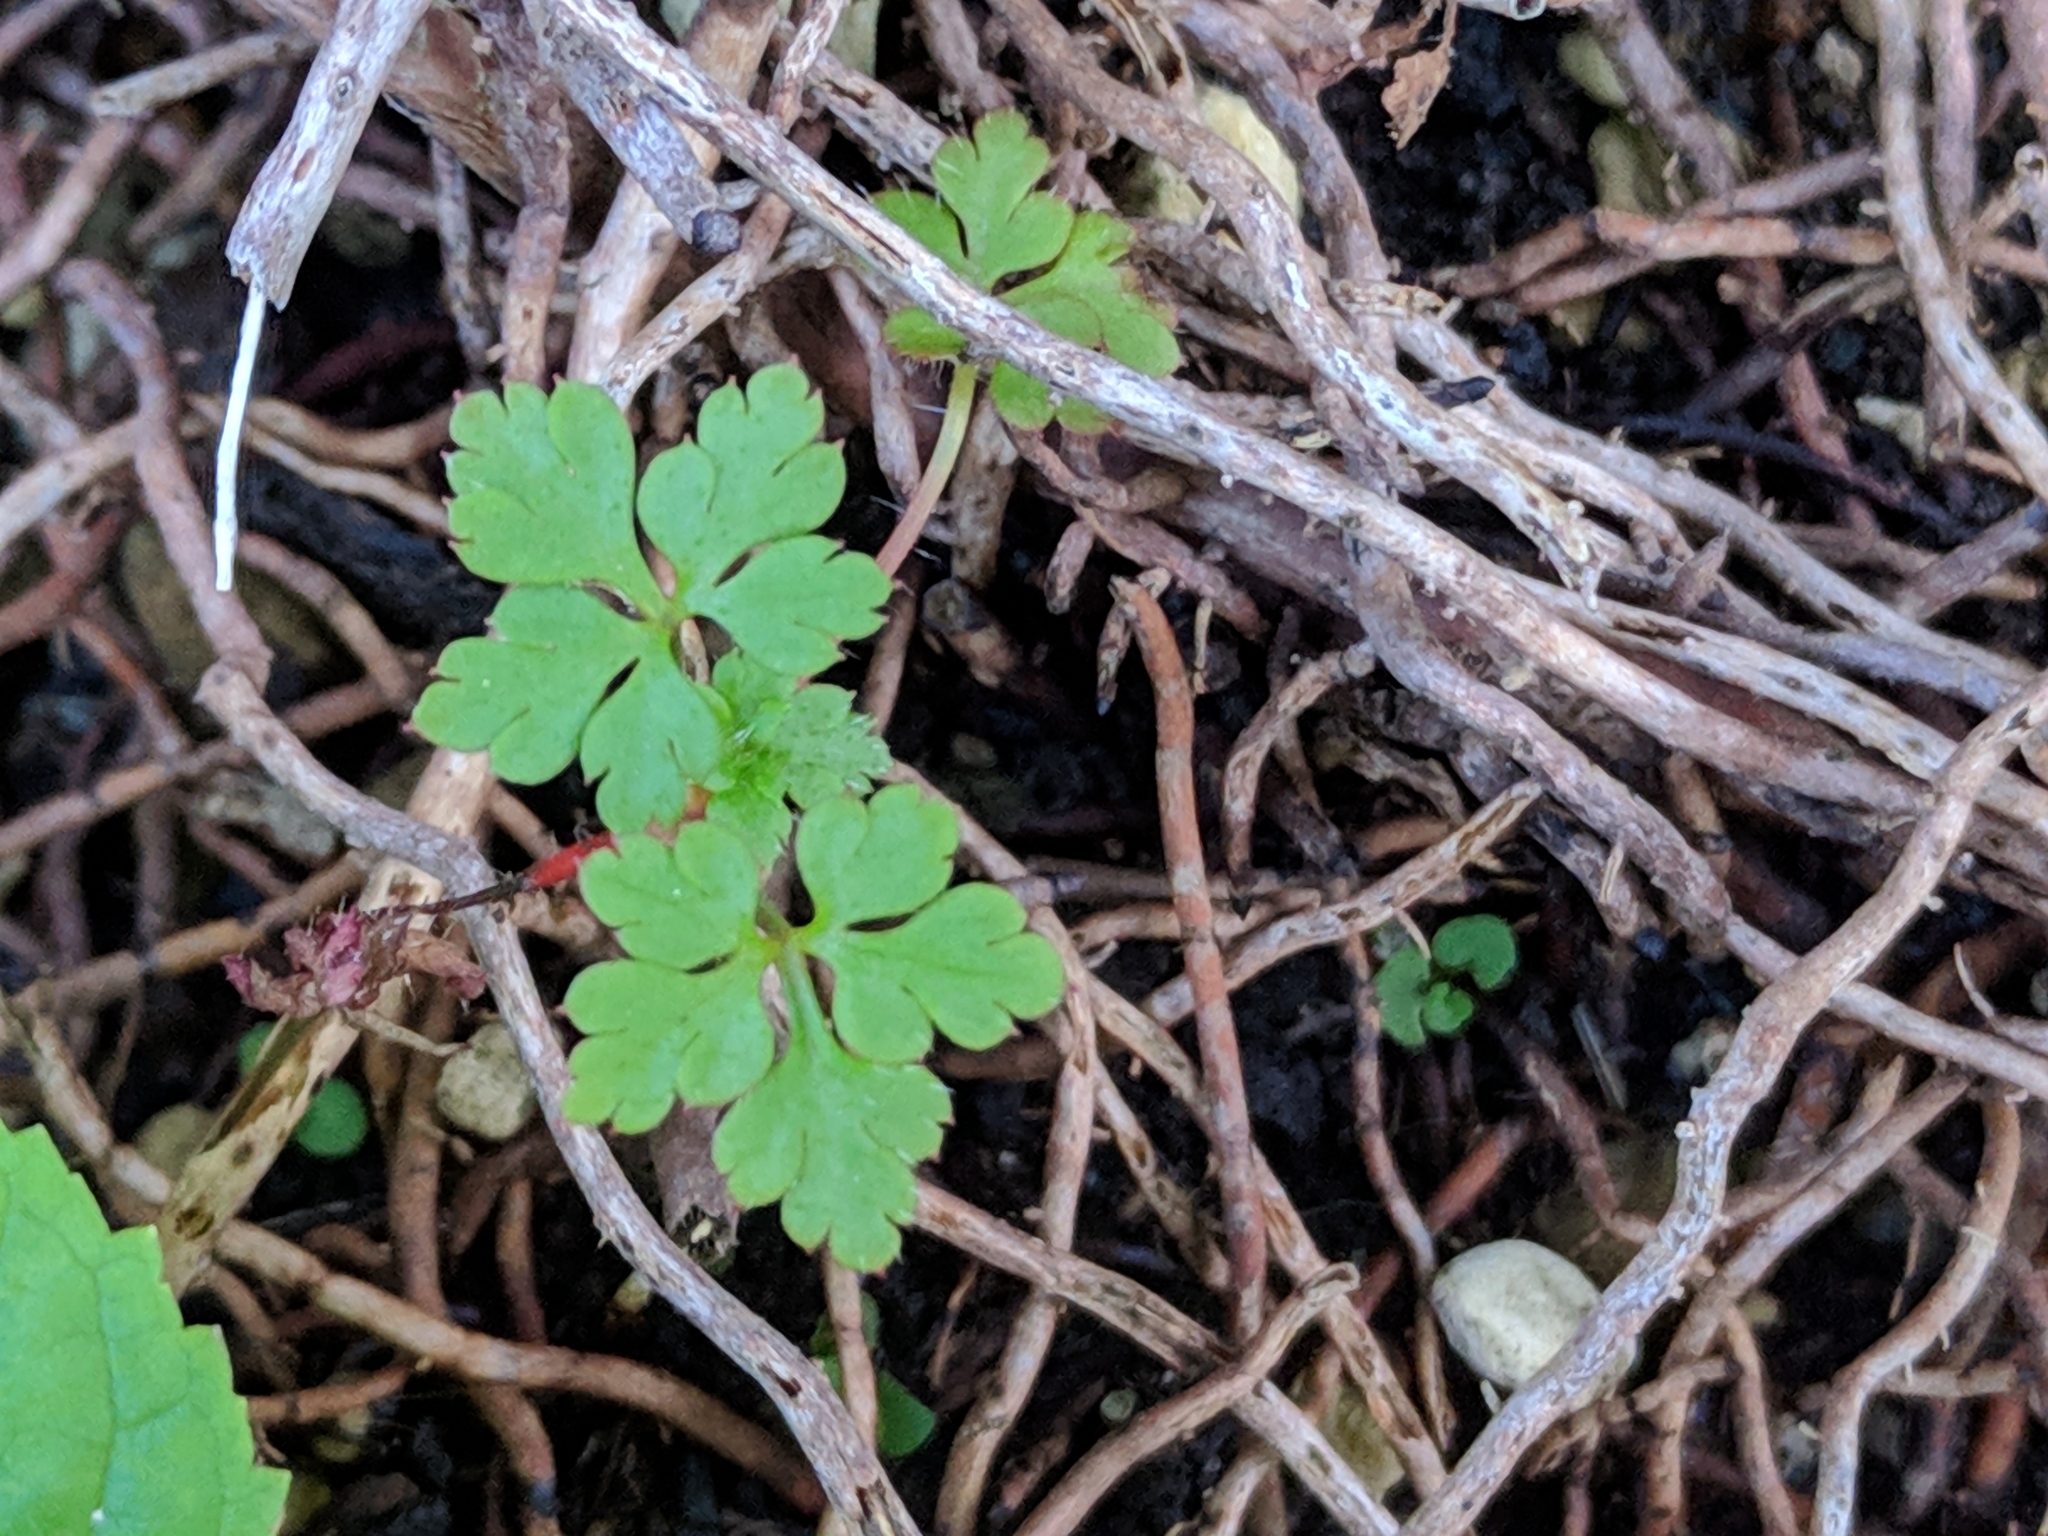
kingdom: Plantae
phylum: Tracheophyta
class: Magnoliopsida
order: Geraniales
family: Geraniaceae
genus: Geranium
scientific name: Geranium robertianum
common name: Herb-robert
